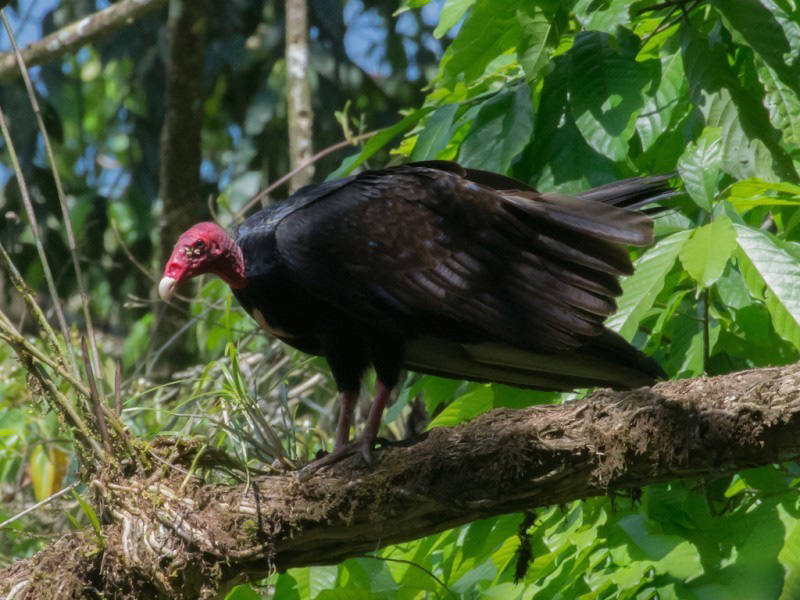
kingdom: Animalia
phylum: Chordata
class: Aves
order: Accipitriformes
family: Cathartidae
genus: Cathartes
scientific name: Cathartes aura
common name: Turkey vulture
